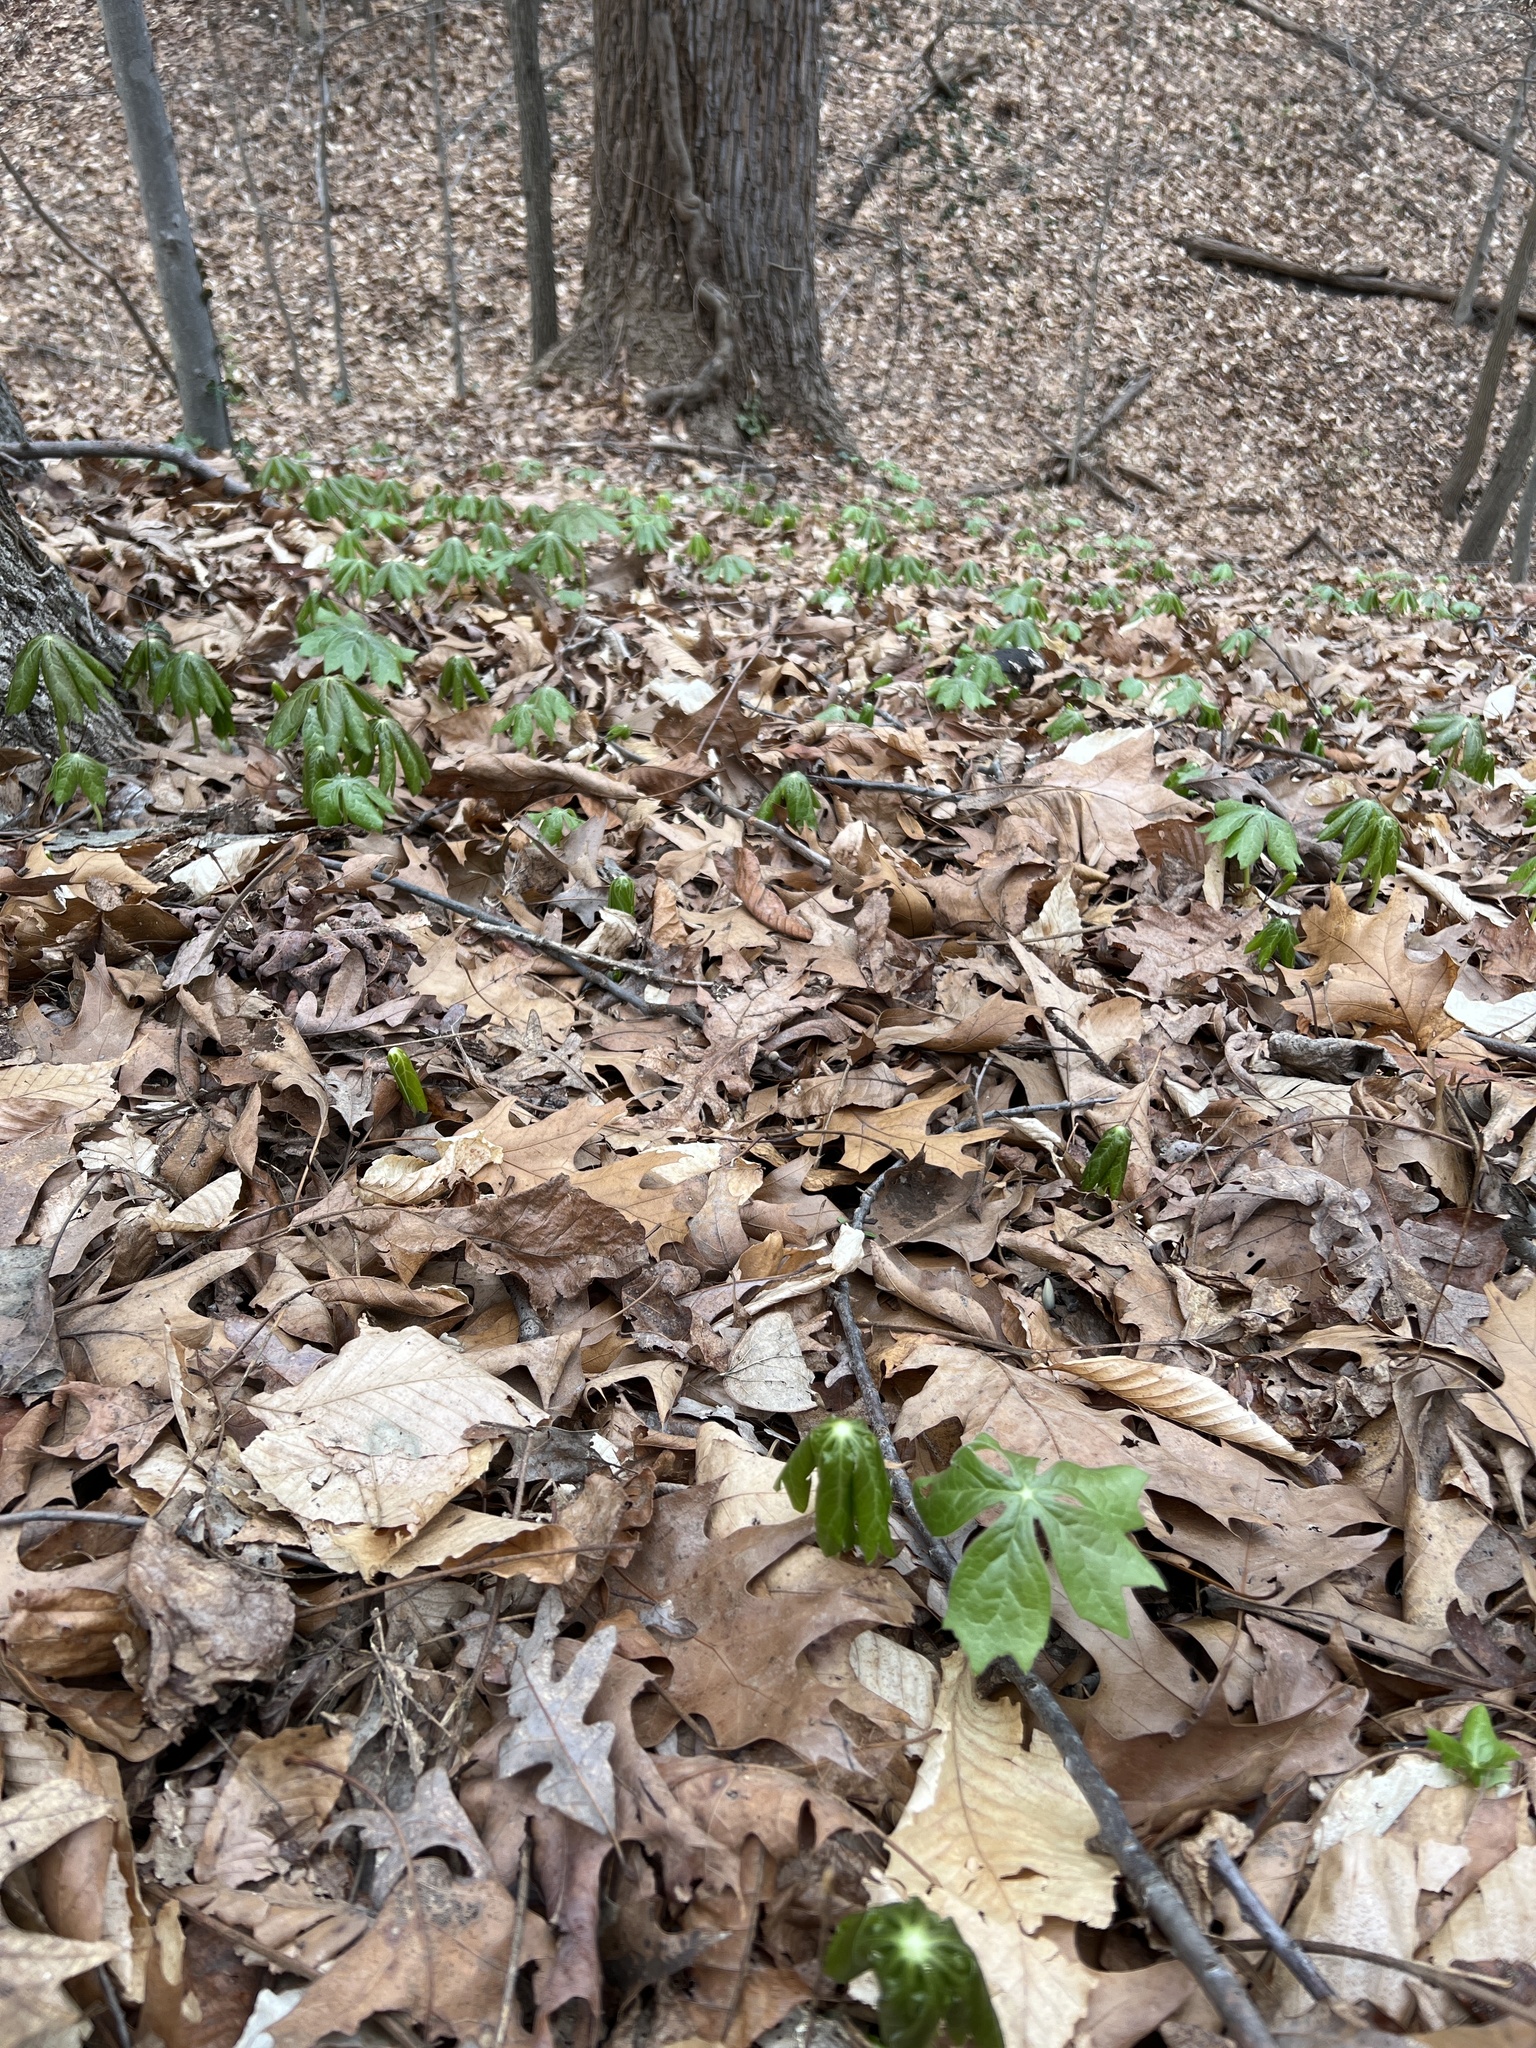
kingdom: Plantae
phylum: Tracheophyta
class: Magnoliopsida
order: Ranunculales
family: Berberidaceae
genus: Podophyllum
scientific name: Podophyllum peltatum
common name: Wild mandrake
